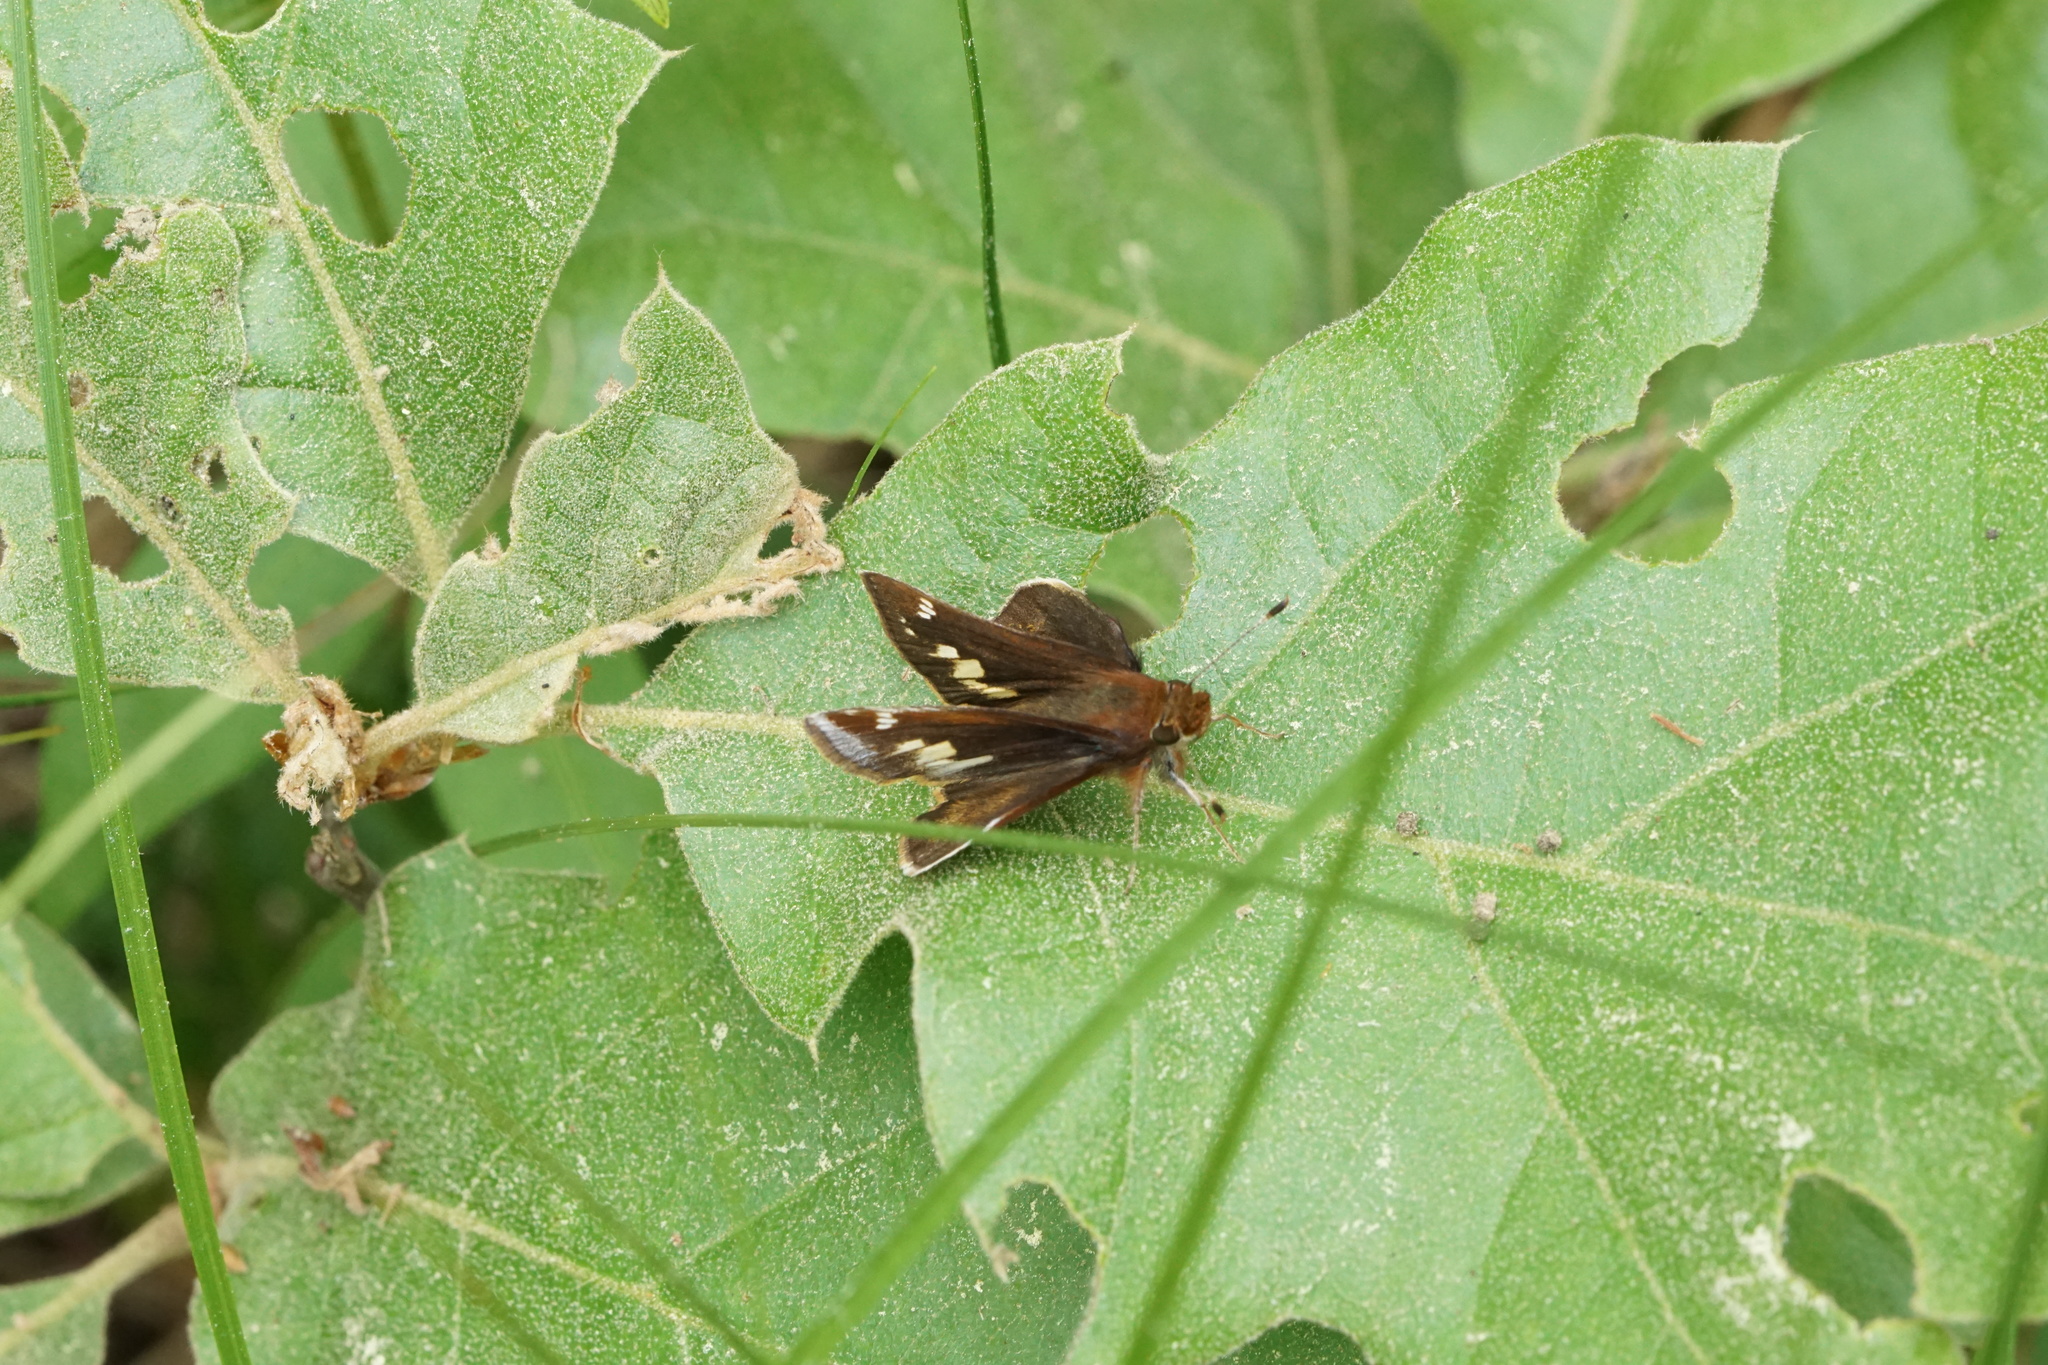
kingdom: Animalia
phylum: Arthropoda
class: Insecta
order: Lepidoptera
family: Hesperiidae
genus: Lon
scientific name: Lon zabulon
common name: Zabulon skipper
